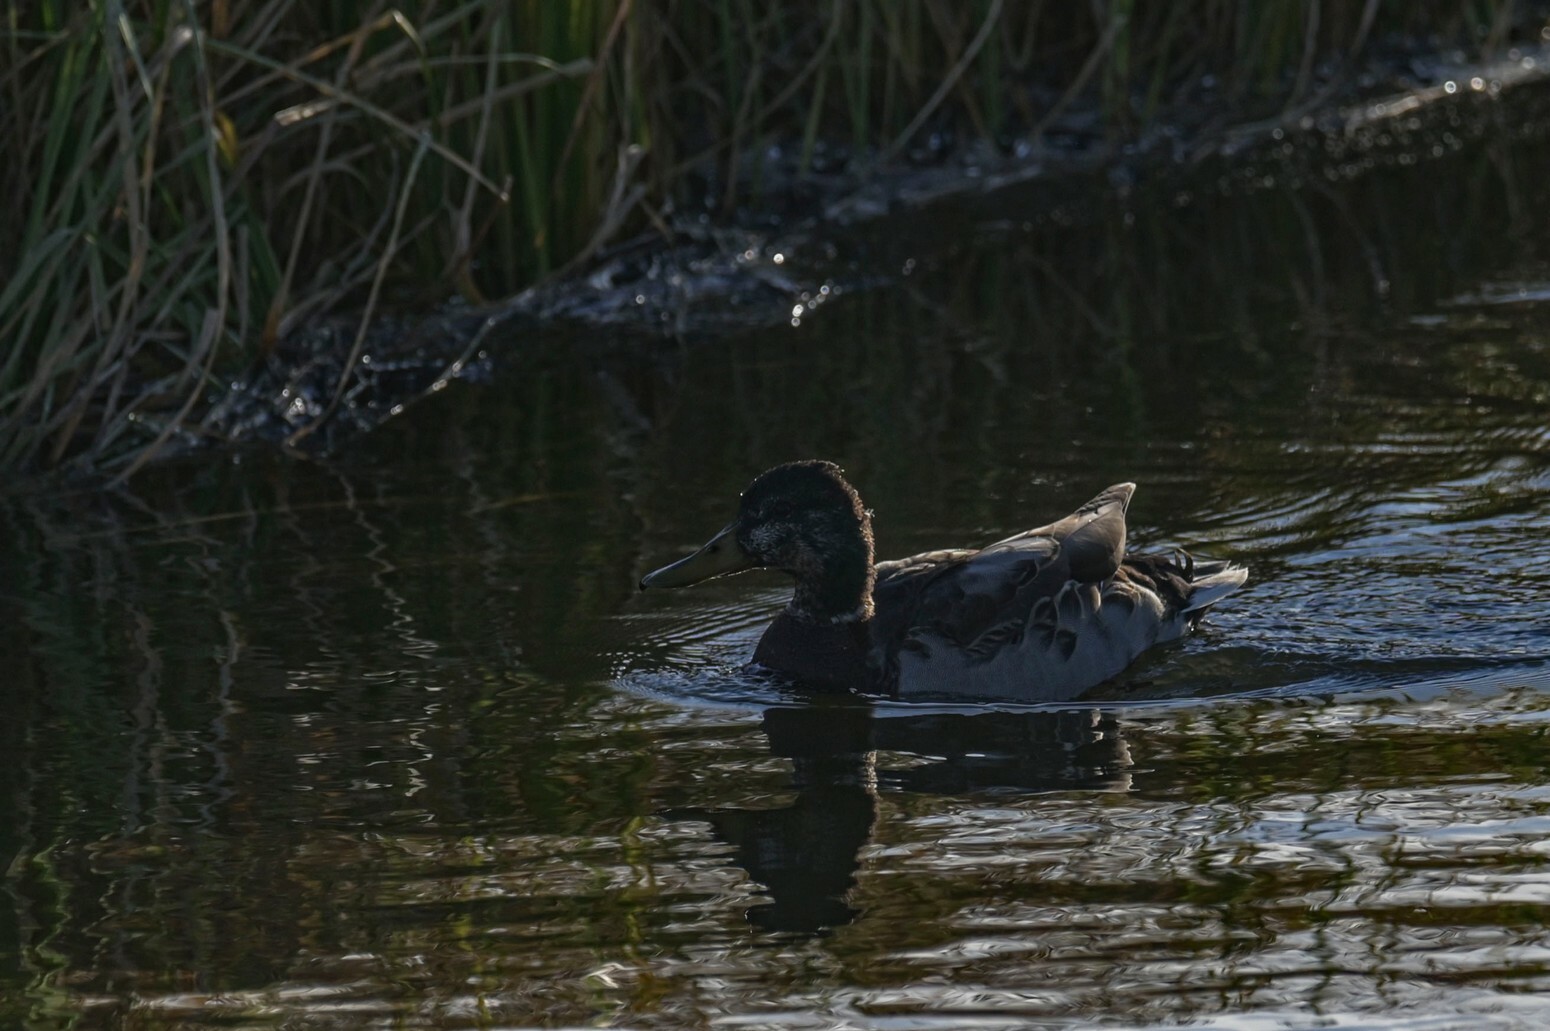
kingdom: Animalia
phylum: Chordata
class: Aves
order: Anseriformes
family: Anatidae
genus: Anas
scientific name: Anas platyrhynchos
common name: Mallard
